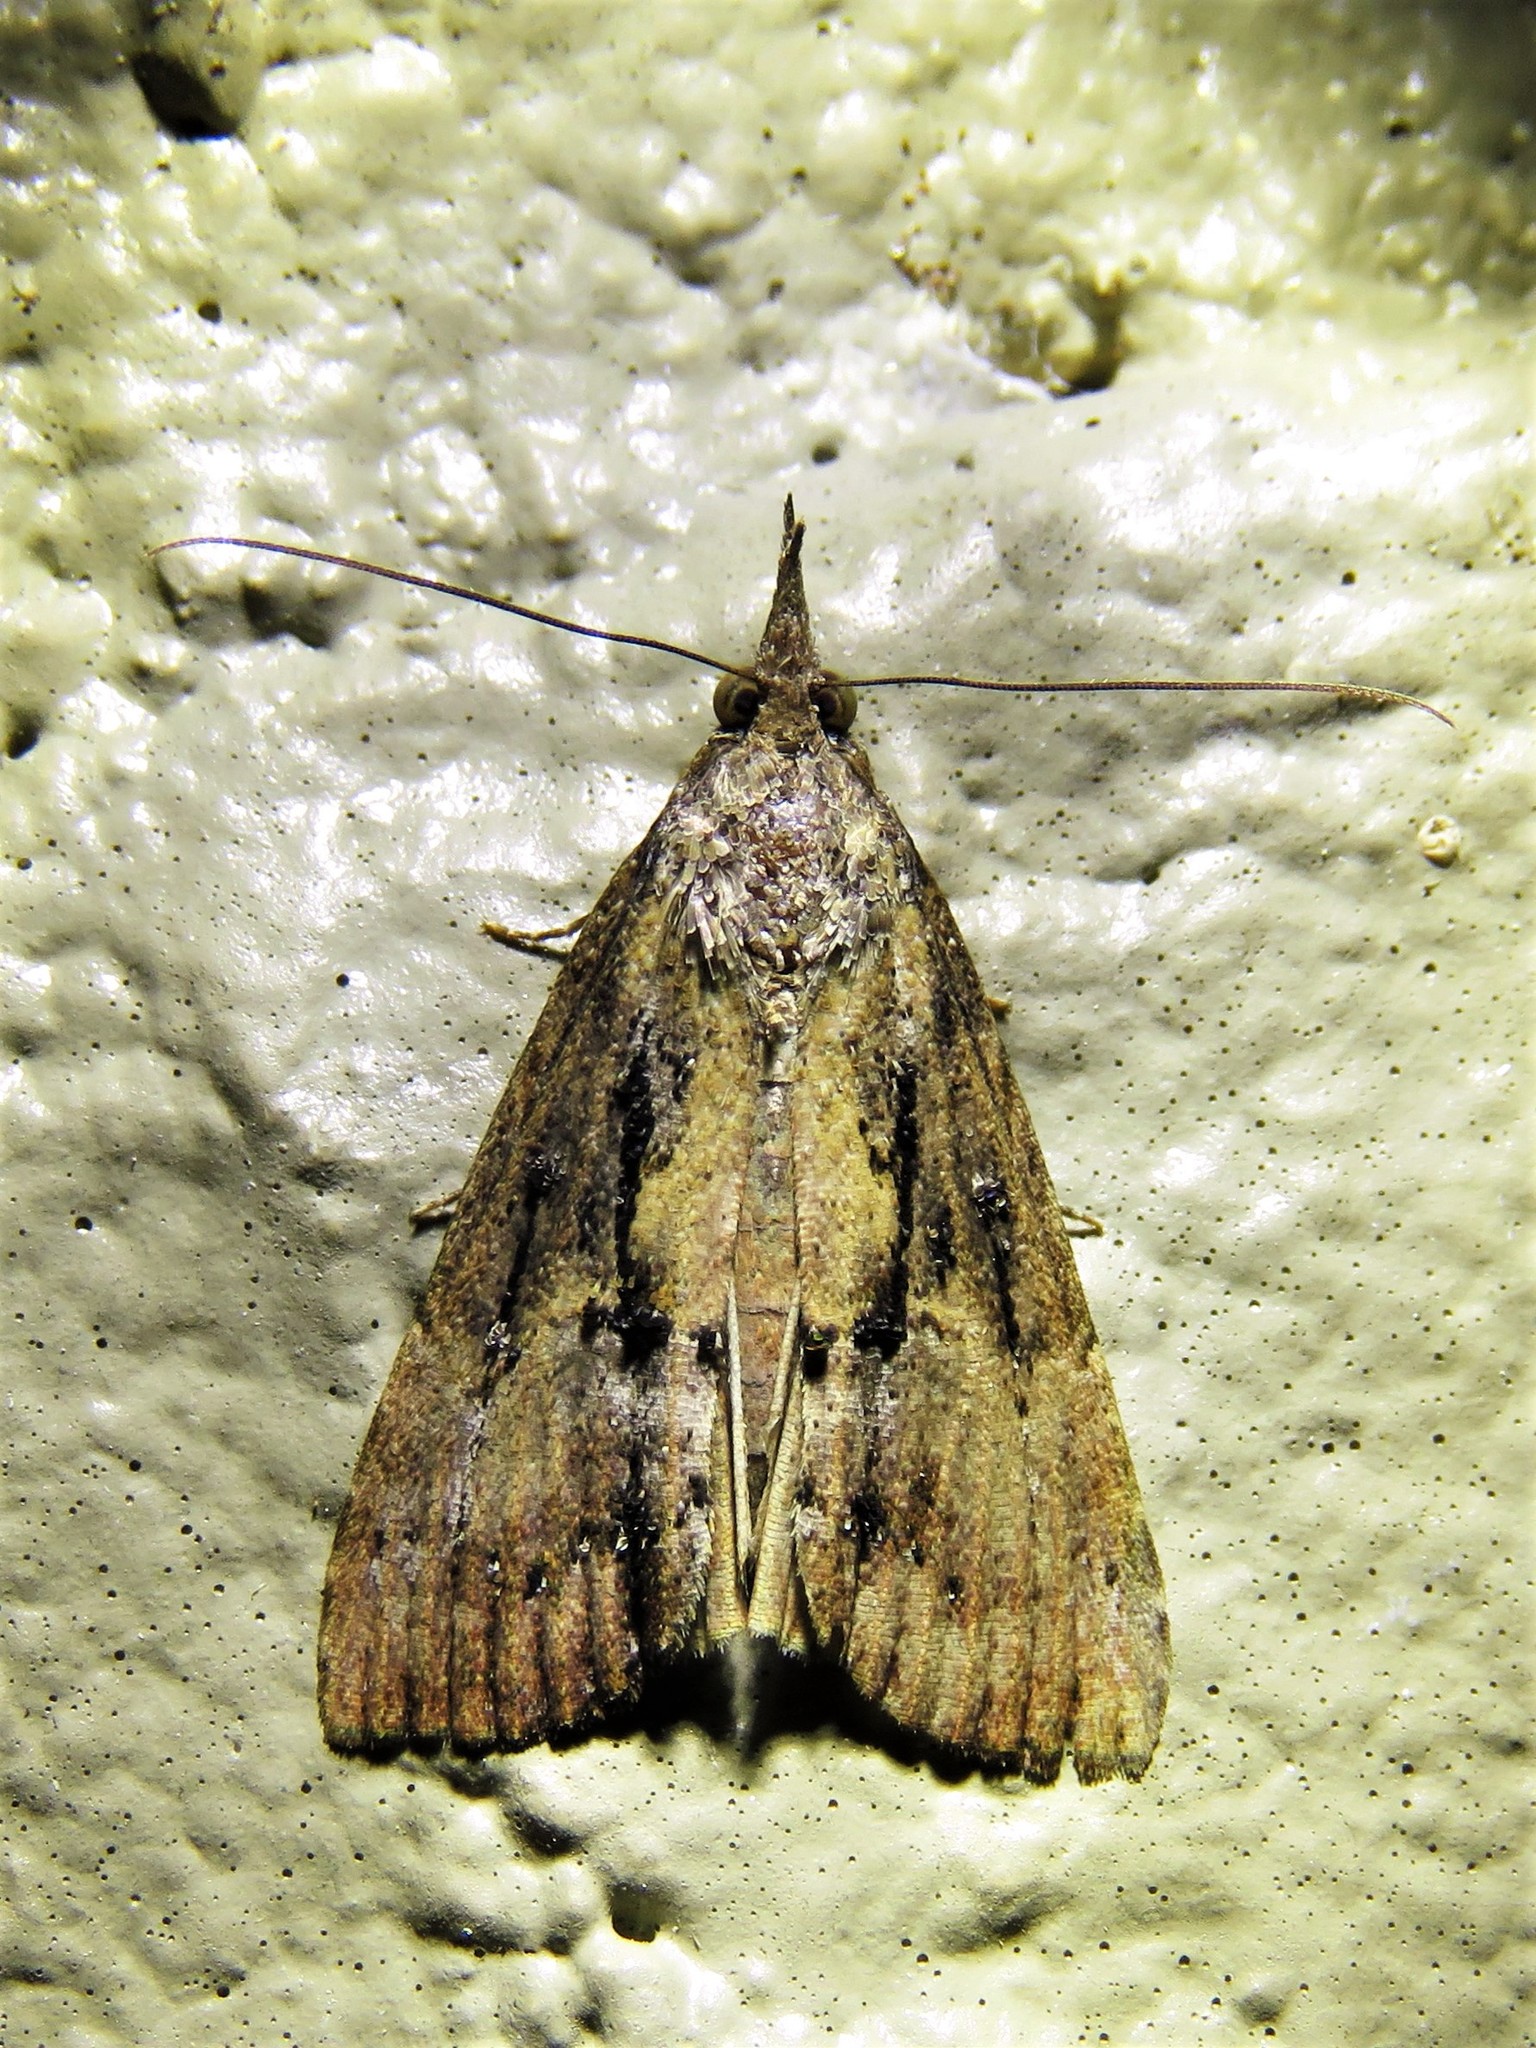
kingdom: Animalia
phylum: Arthropoda
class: Insecta
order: Lepidoptera
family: Erebidae
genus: Hypena
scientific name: Hypena scabra
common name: Green cloverworm
